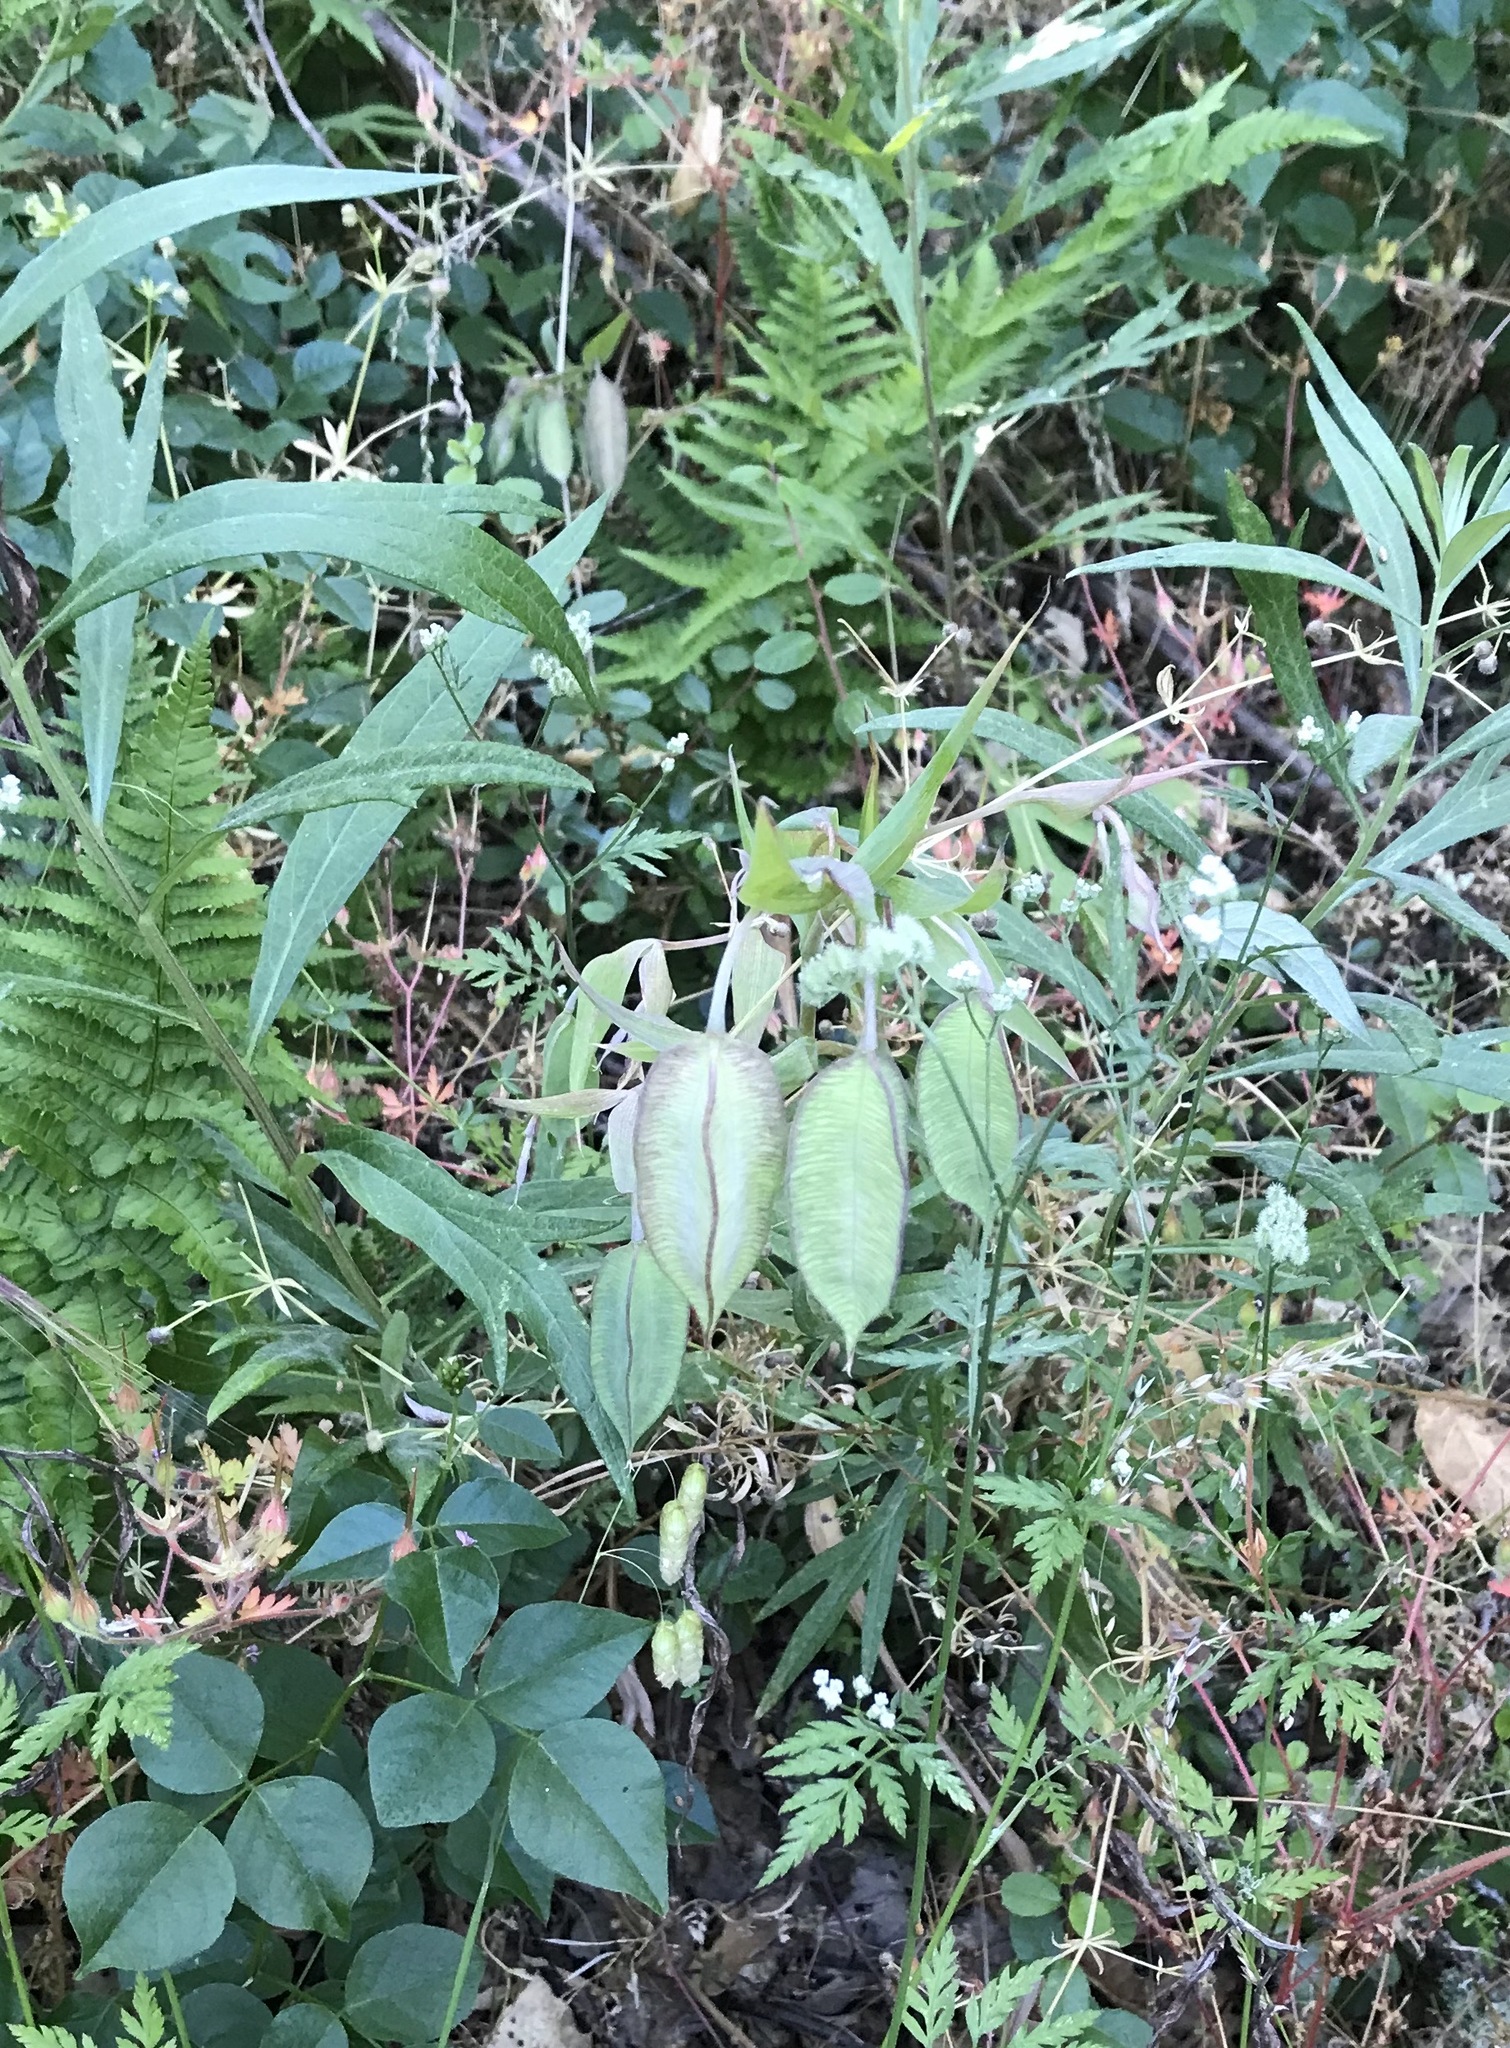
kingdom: Plantae
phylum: Tracheophyta
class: Liliopsida
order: Liliales
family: Liliaceae
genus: Calochortus
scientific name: Calochortus albus
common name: Fairy-lantern
